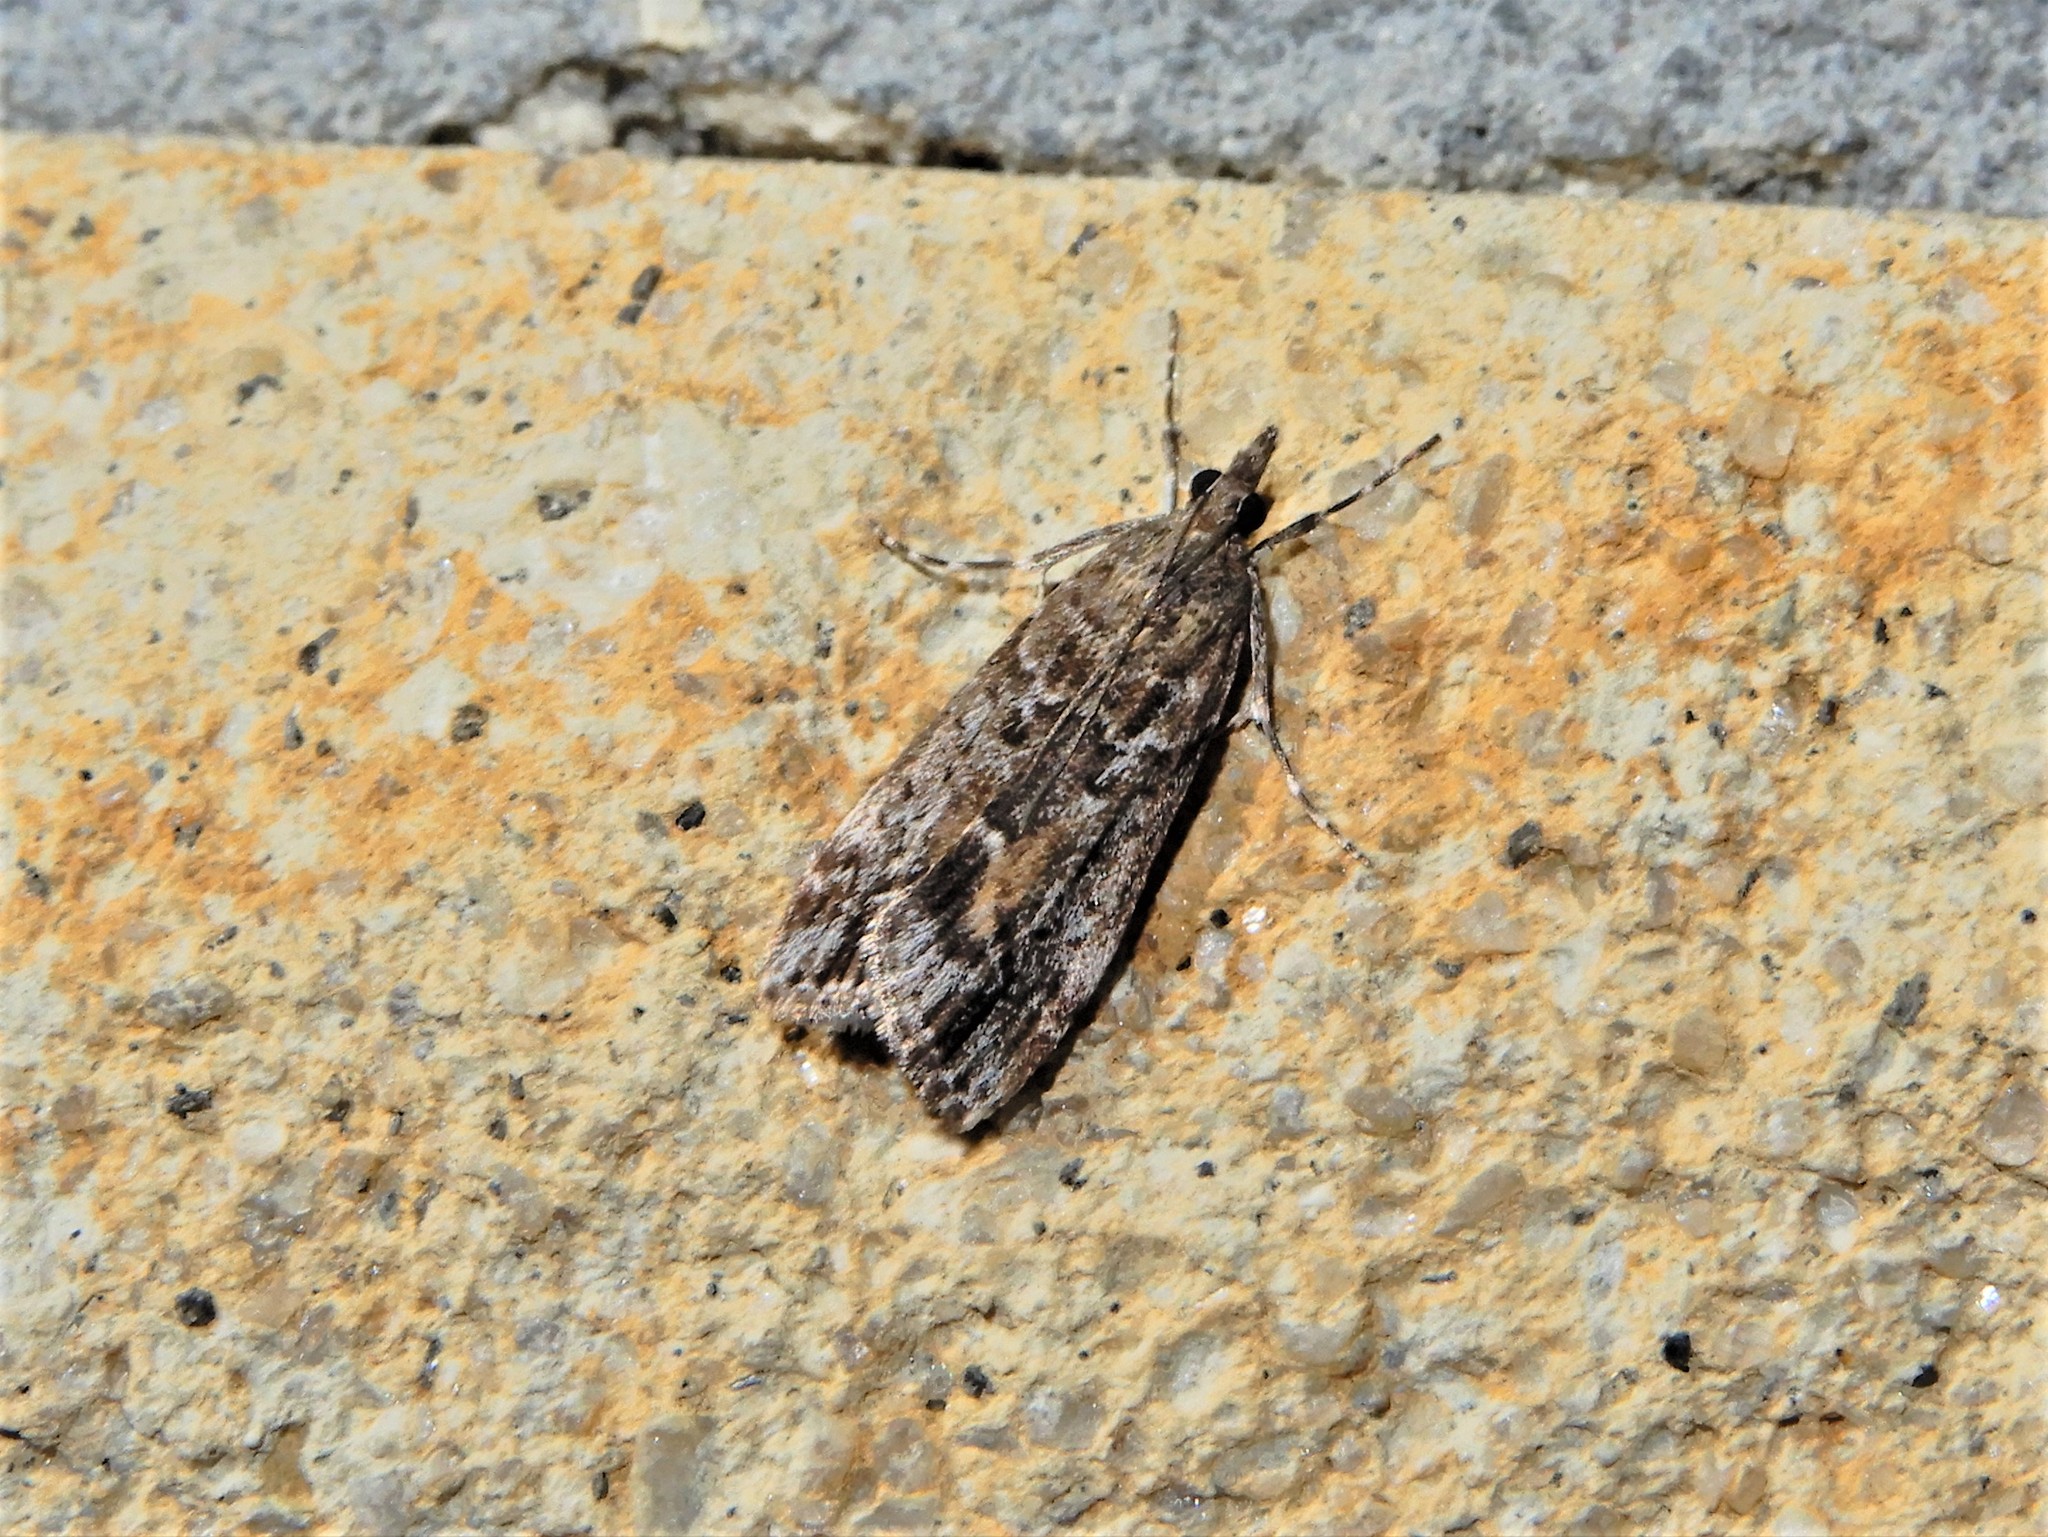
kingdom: Animalia
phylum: Arthropoda
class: Insecta
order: Lepidoptera
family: Crambidae
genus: Eudonia
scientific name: Eudonia submarginalis
